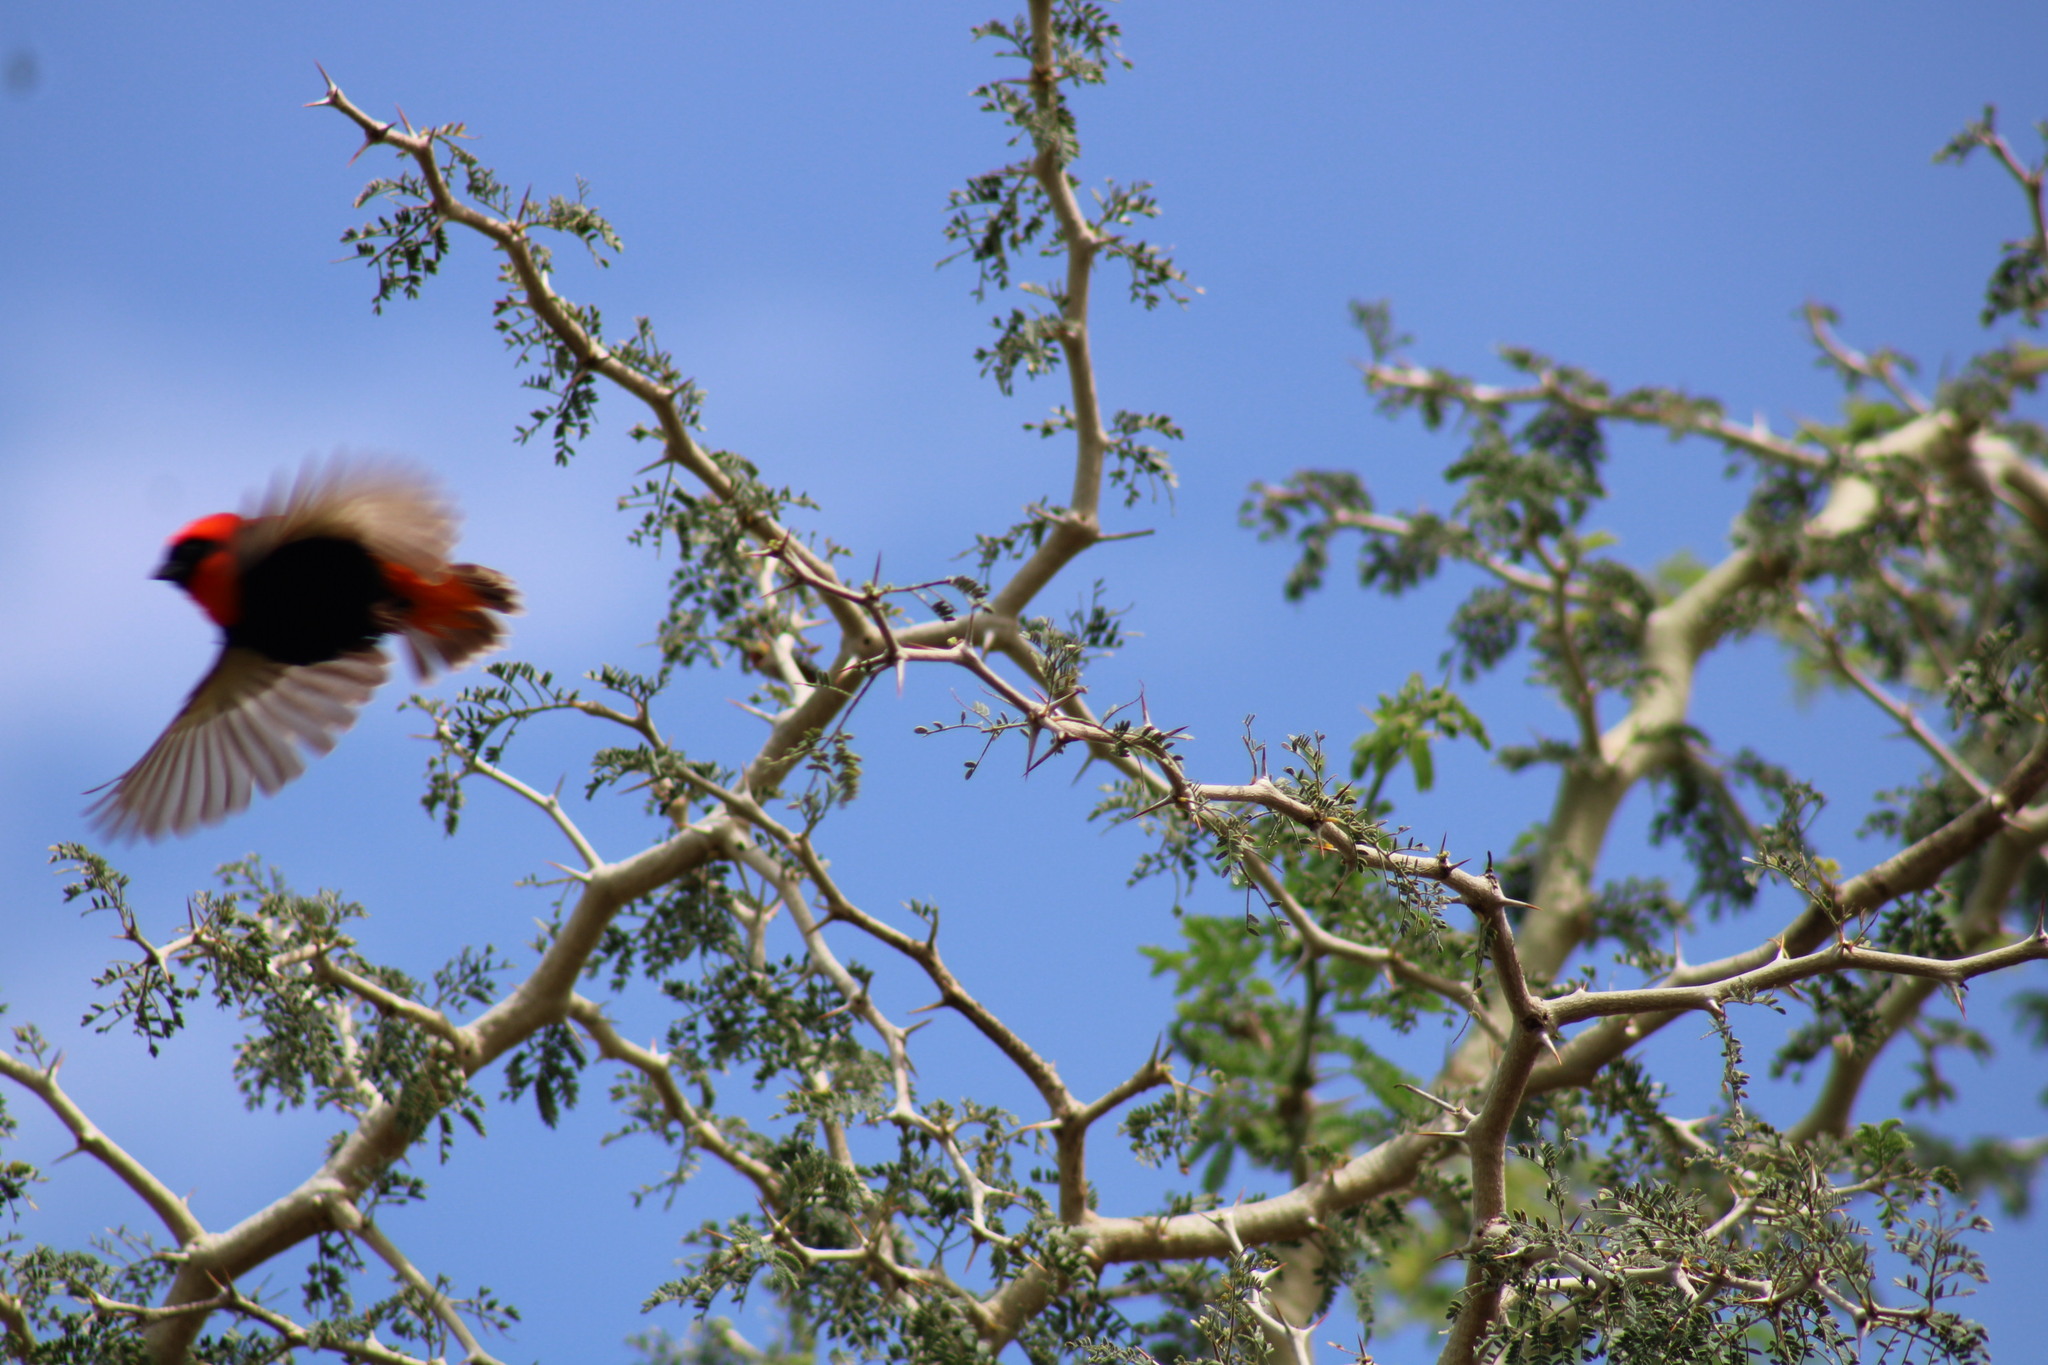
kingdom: Animalia
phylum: Chordata
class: Aves
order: Passeriformes
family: Ploceidae
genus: Euplectes
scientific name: Euplectes orix
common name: Southern red bishop
